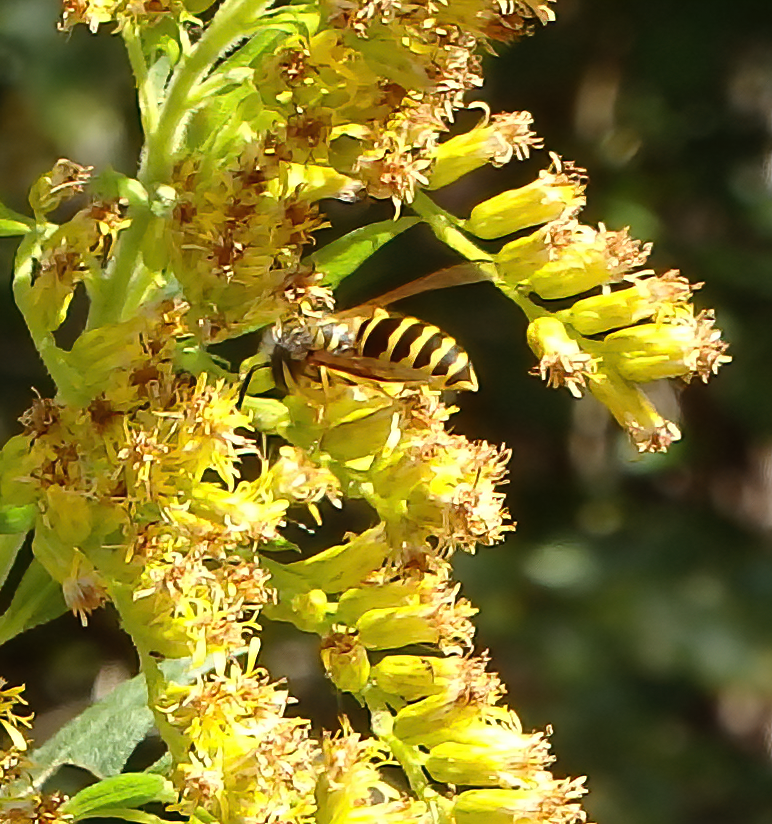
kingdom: Animalia
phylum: Arthropoda
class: Insecta
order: Hymenoptera
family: Vespidae
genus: Vespula
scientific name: Vespula maculifrons
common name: Eastern yellowjacket
